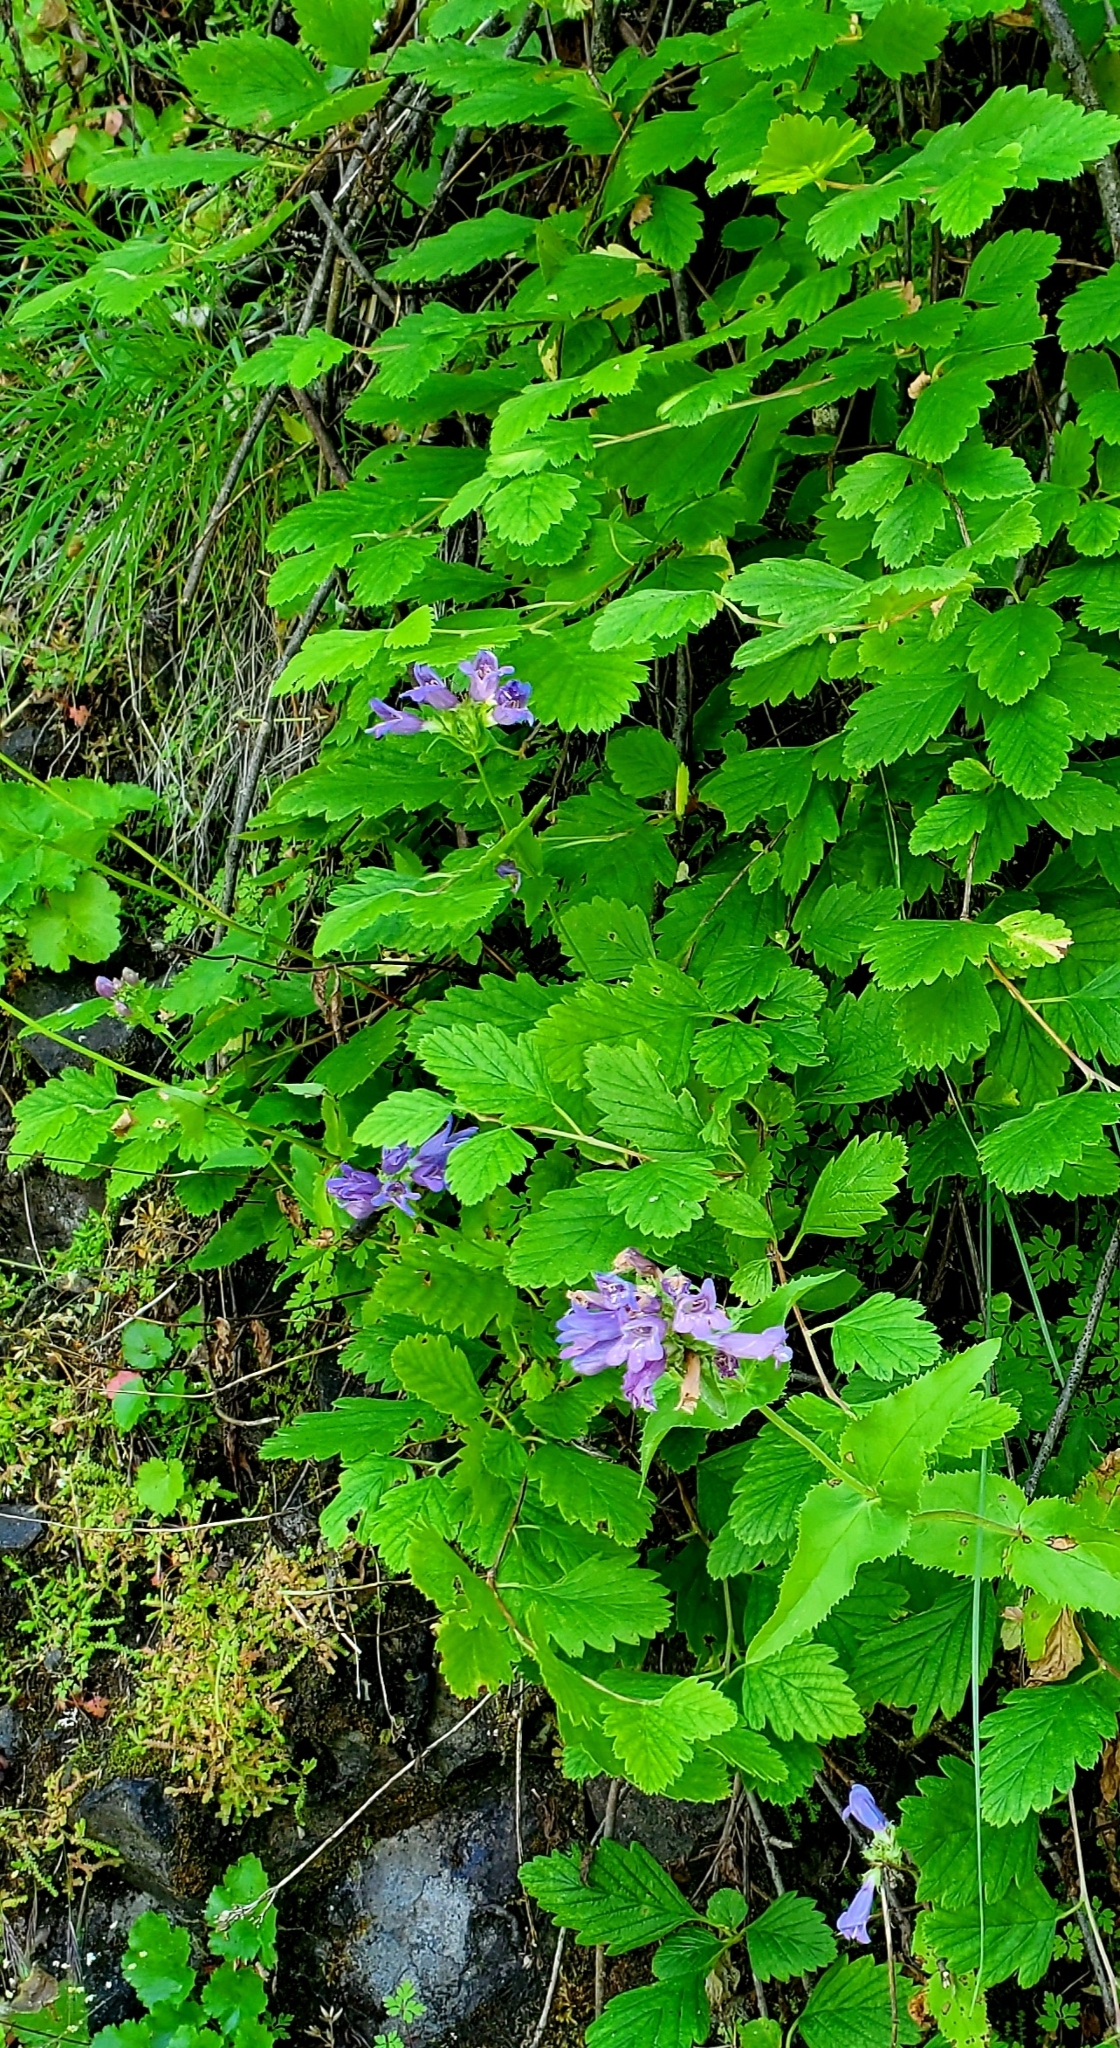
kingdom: Plantae
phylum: Tracheophyta
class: Magnoliopsida
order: Lamiales
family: Plantaginaceae
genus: Penstemon
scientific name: Penstemon serrulatus
